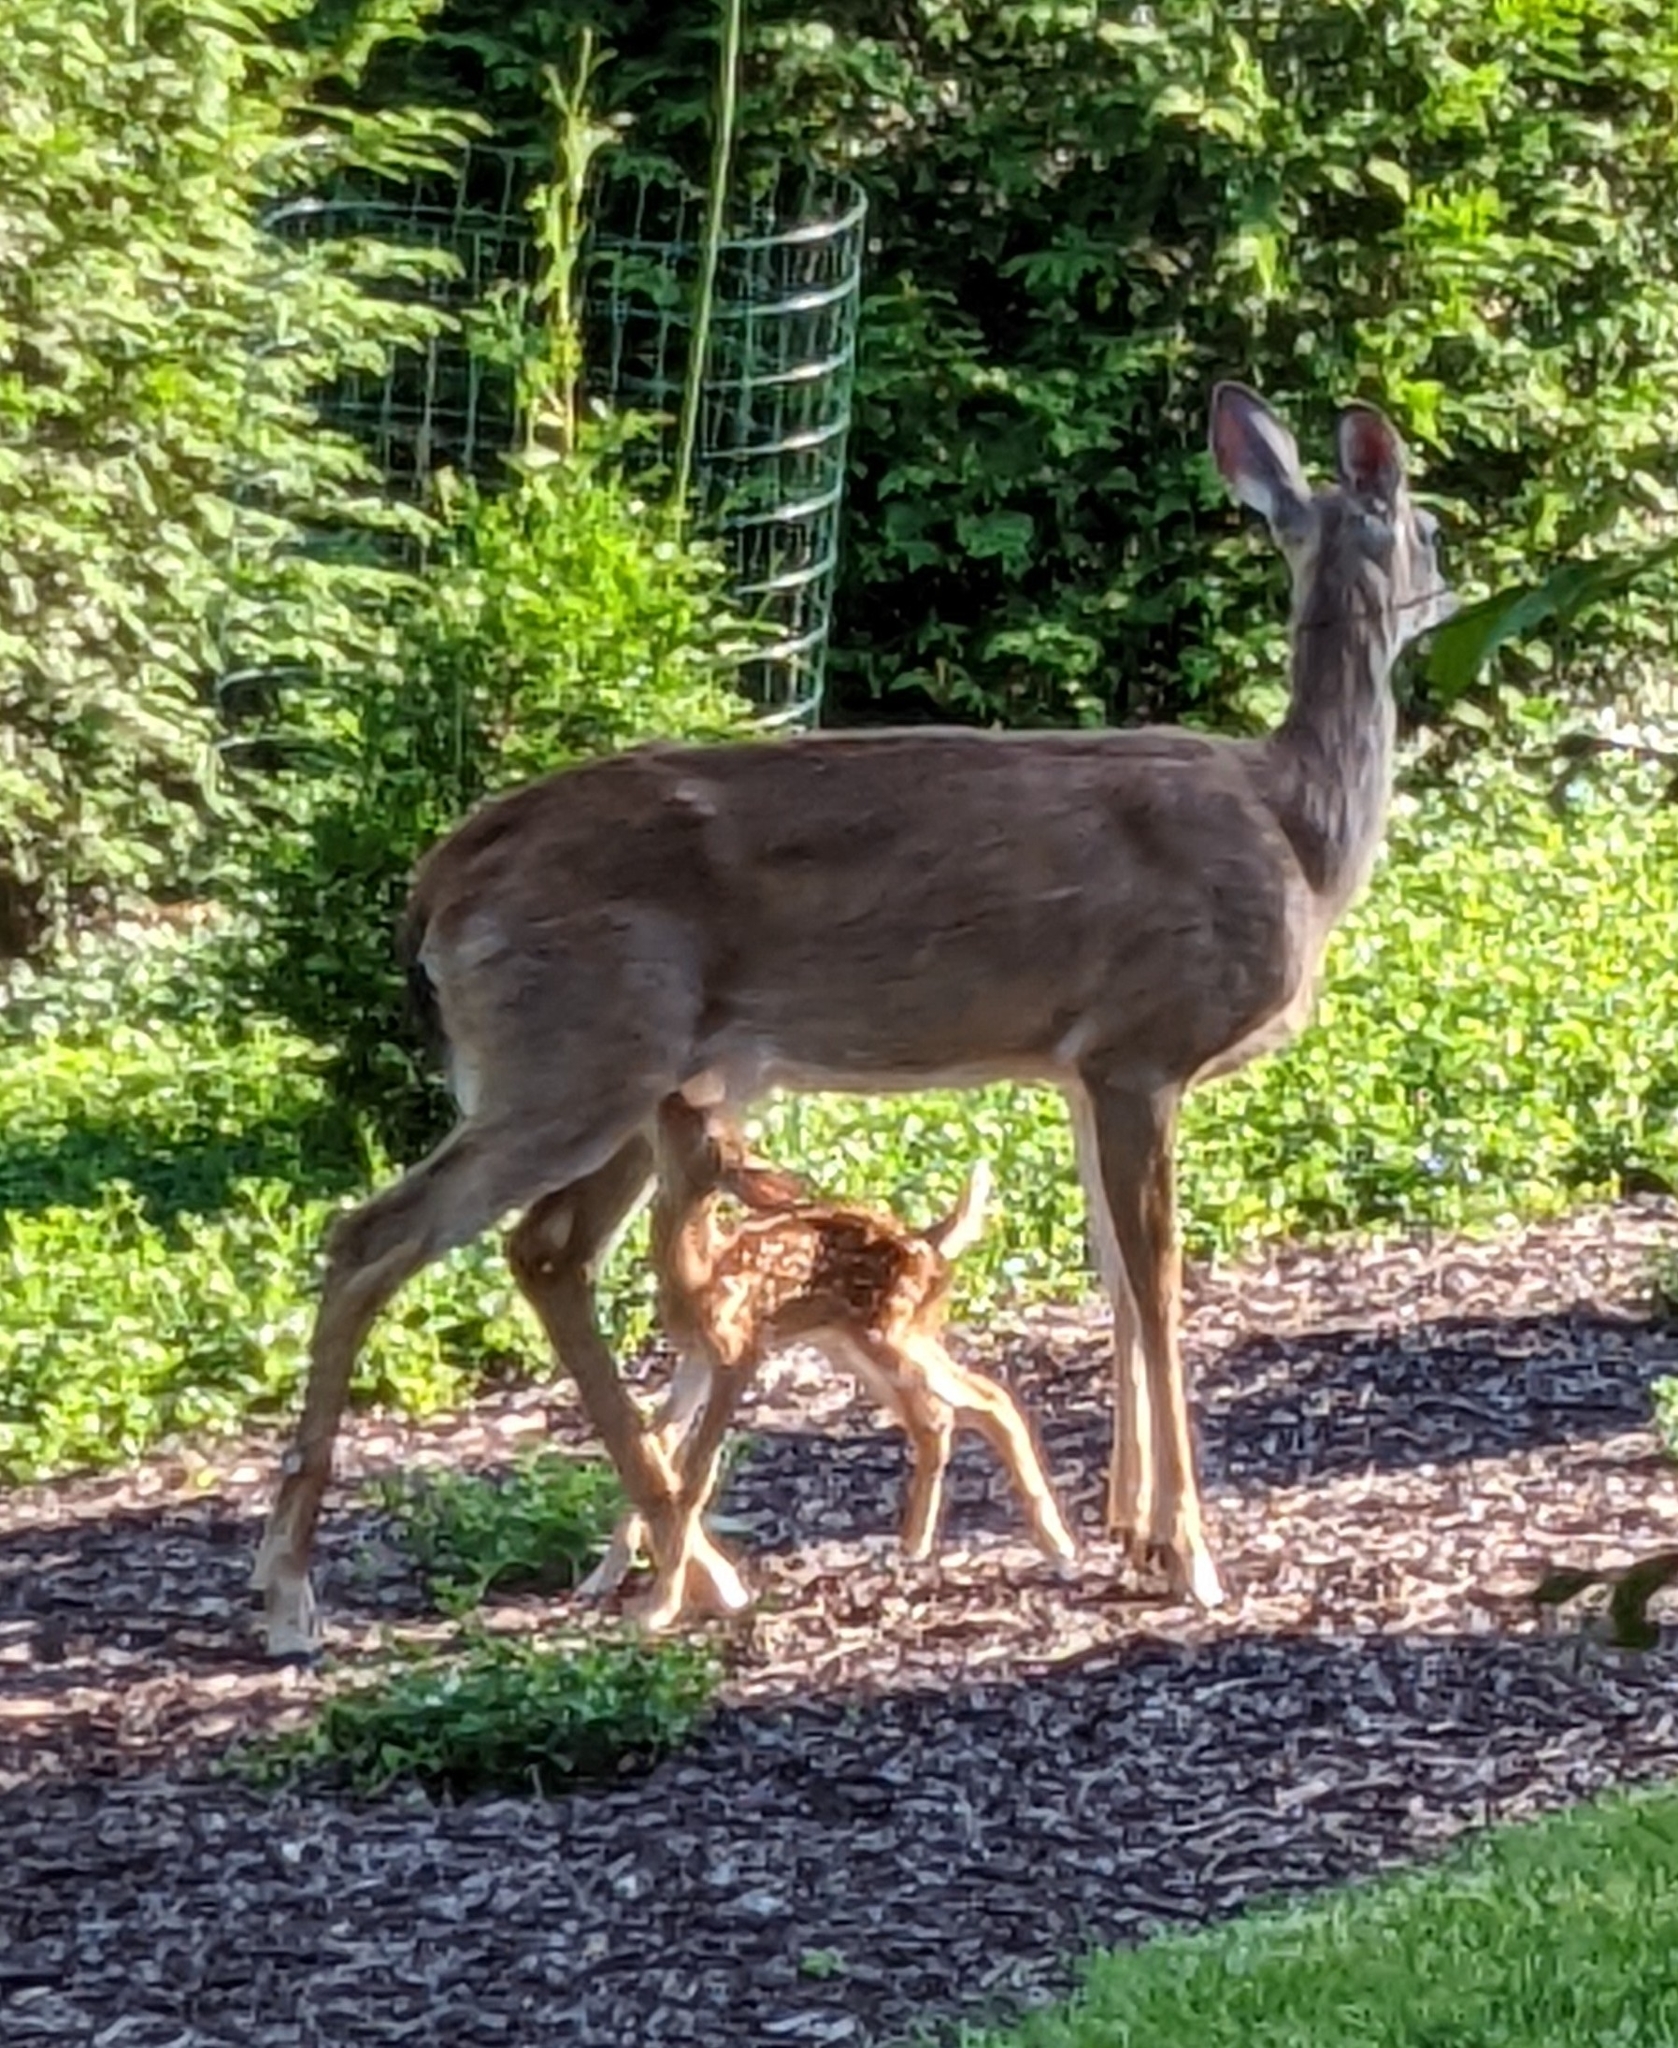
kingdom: Animalia
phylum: Chordata
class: Mammalia
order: Artiodactyla
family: Cervidae
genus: Odocoileus
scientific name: Odocoileus virginianus
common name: White-tailed deer
